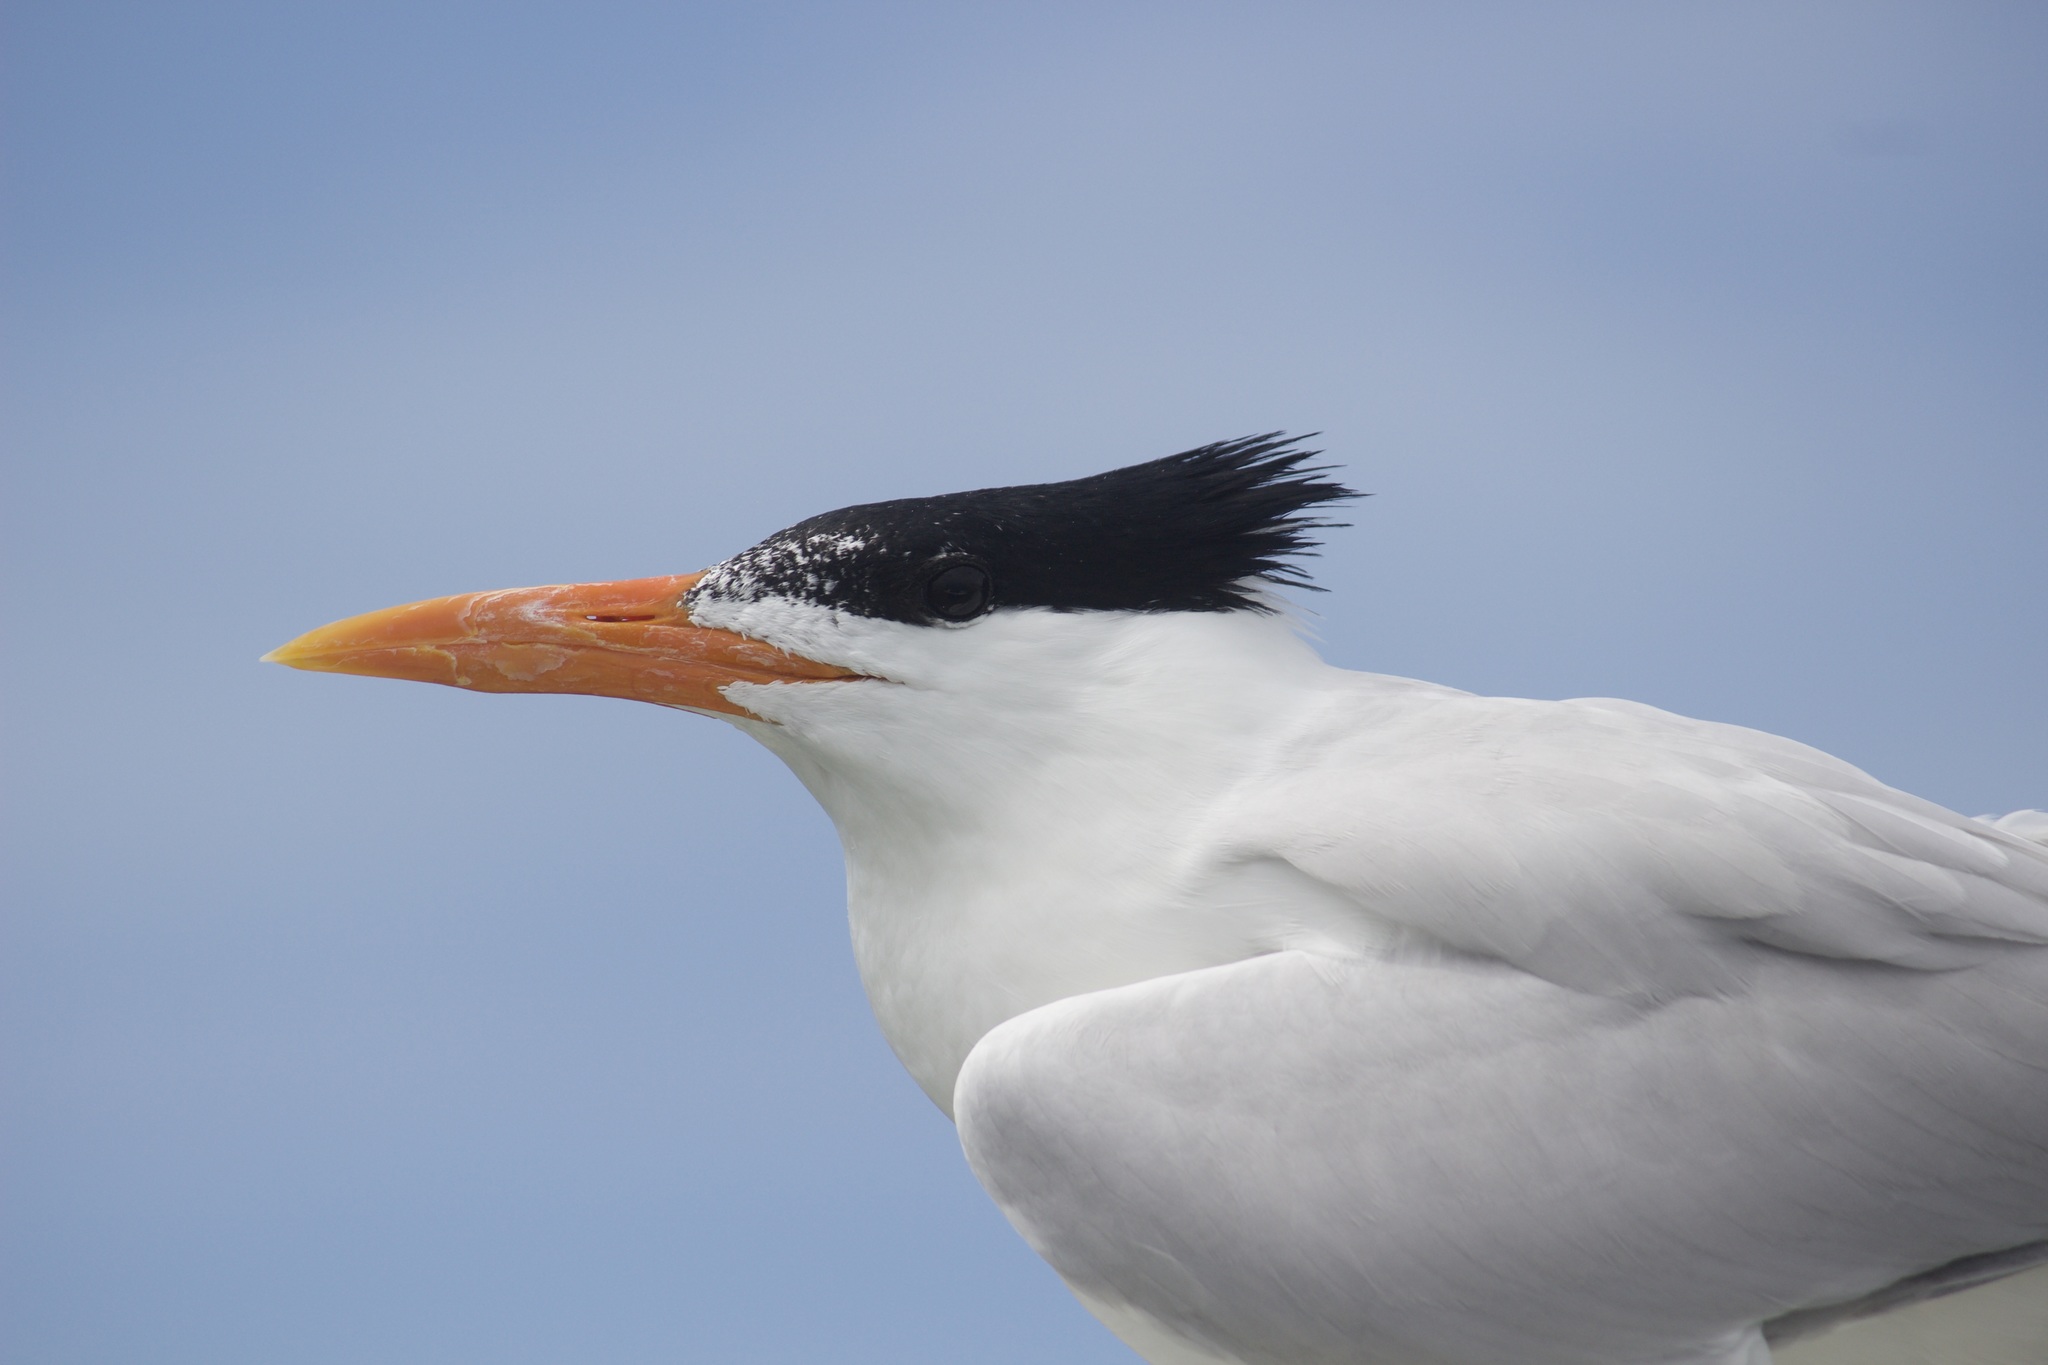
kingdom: Animalia
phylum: Chordata
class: Aves
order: Charadriiformes
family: Laridae
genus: Thalasseus
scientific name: Thalasseus maximus
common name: Royal tern
